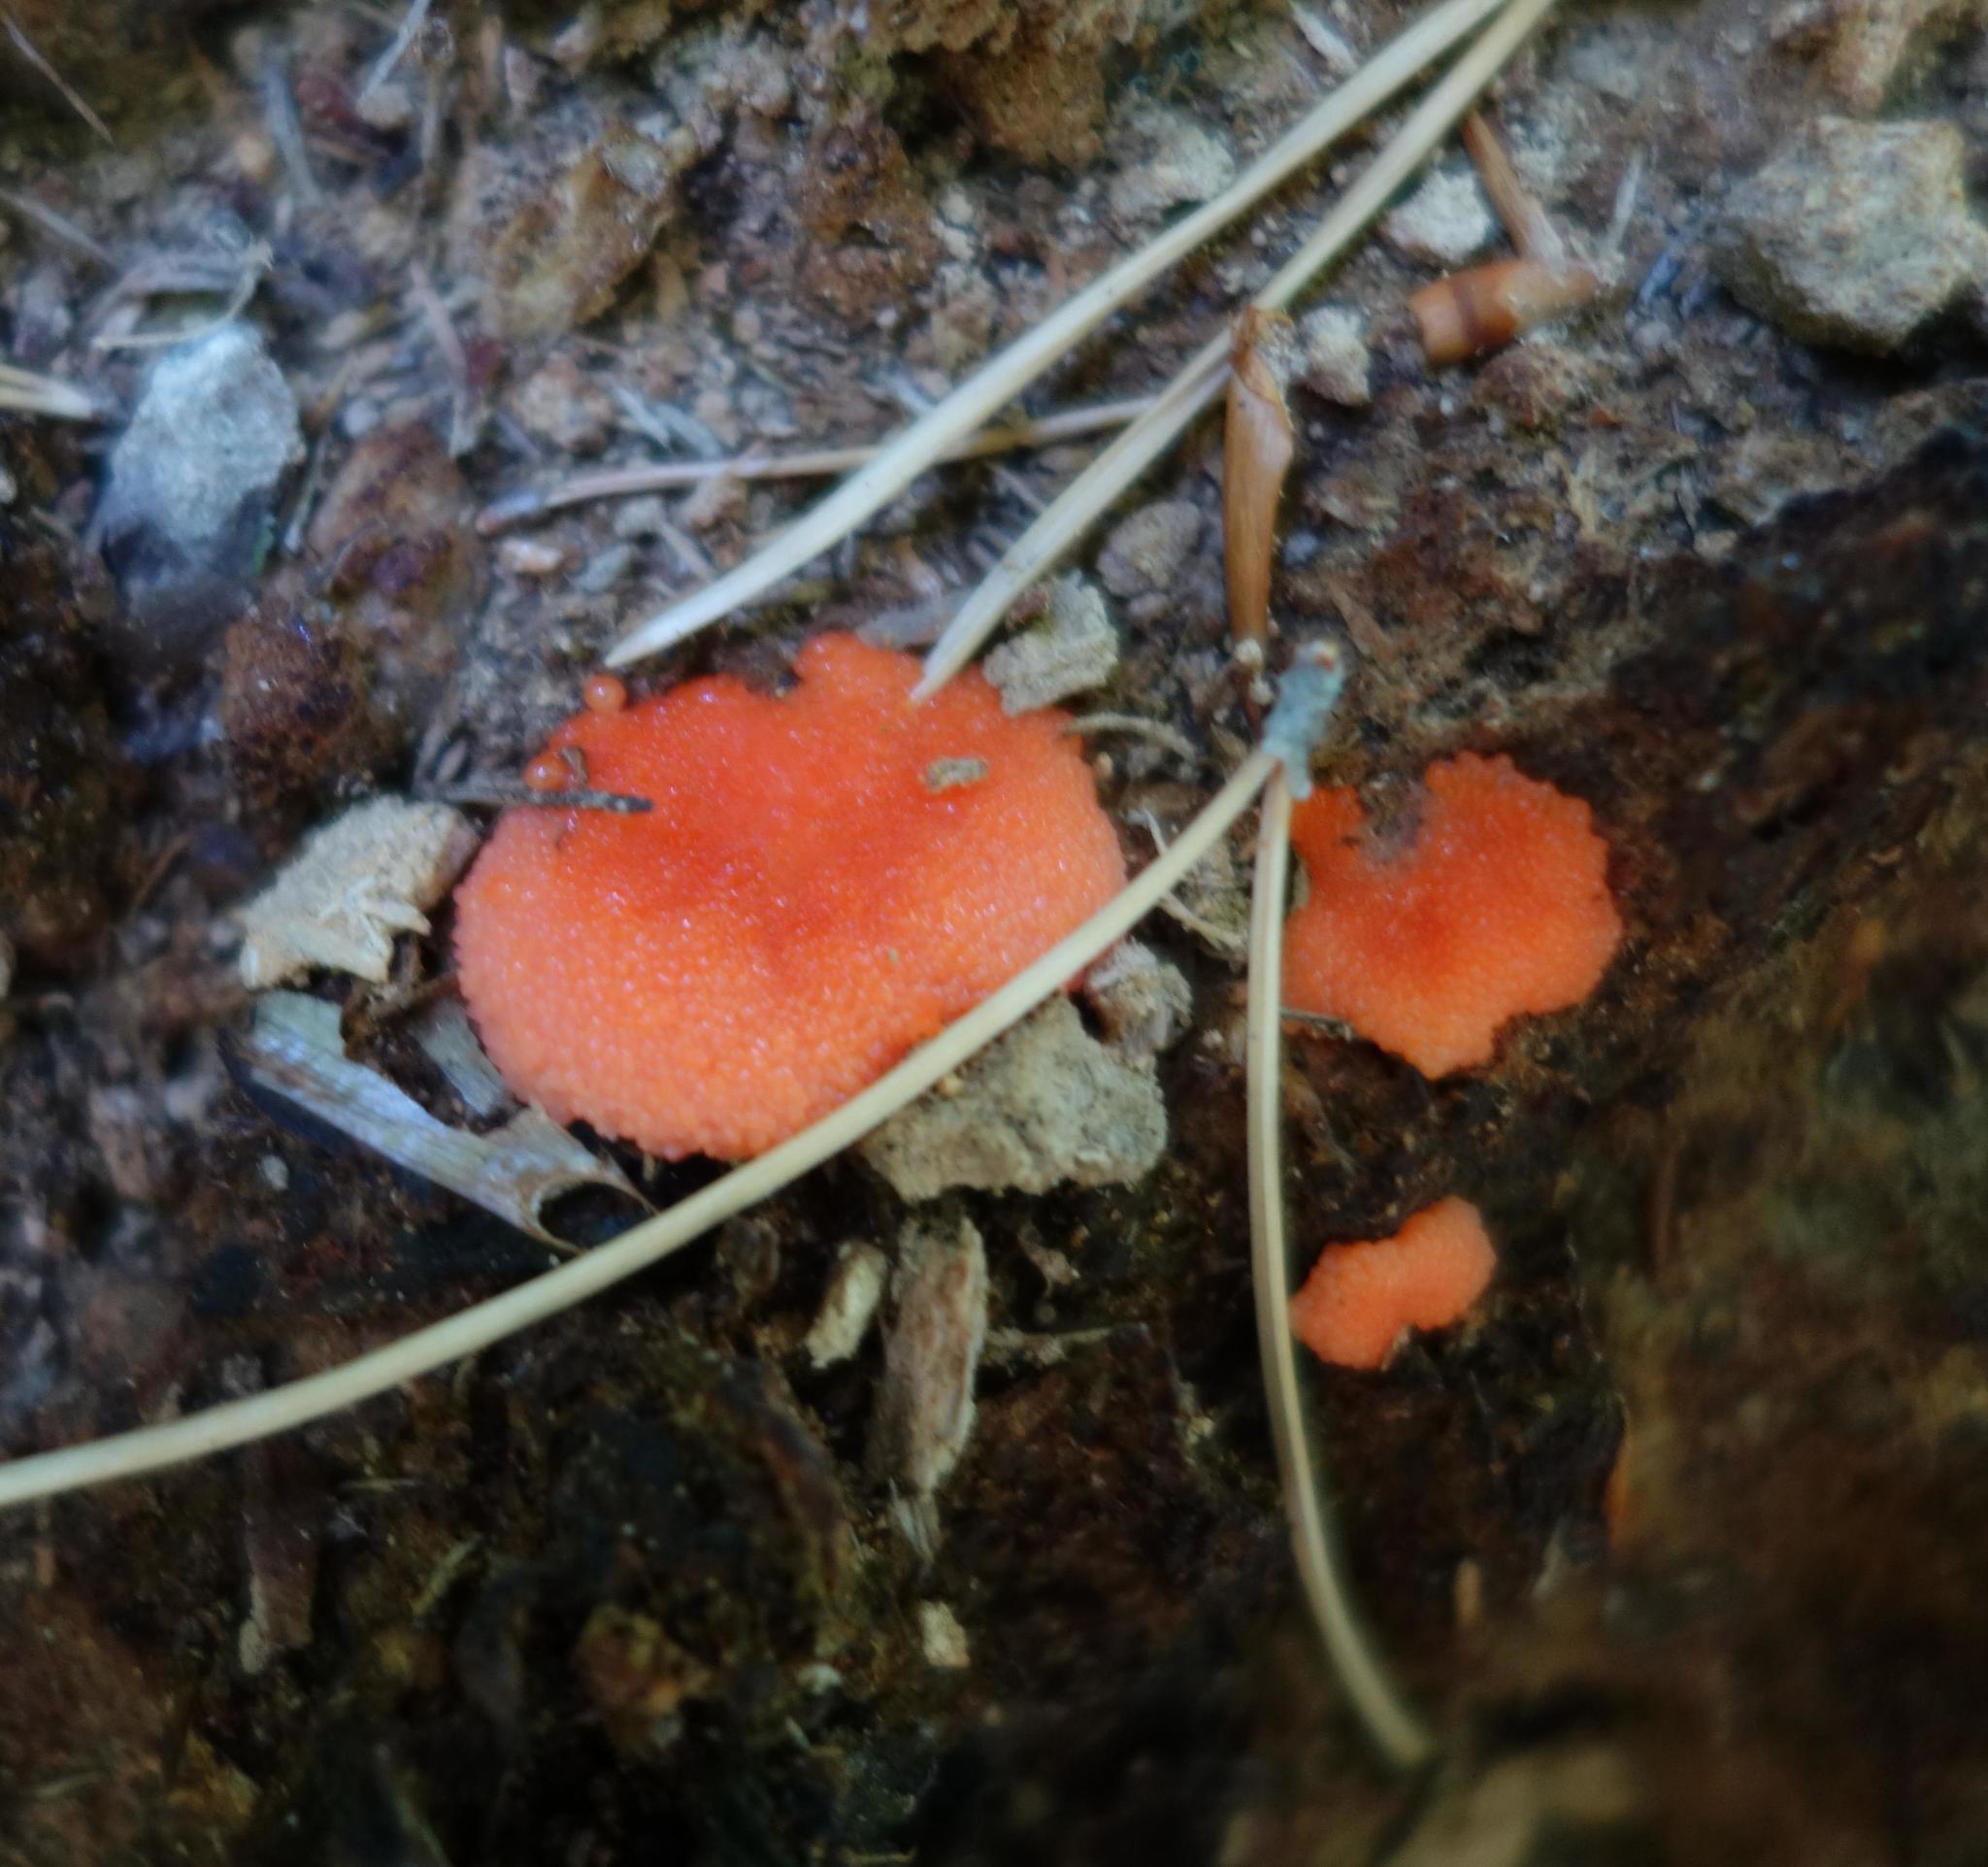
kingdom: Protozoa
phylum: Mycetozoa
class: Myxomycetes
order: Cribrariales
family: Tubiferaceae
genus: Tubifera
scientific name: Tubifera ferruginosa
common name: Red raspberry slime mold
